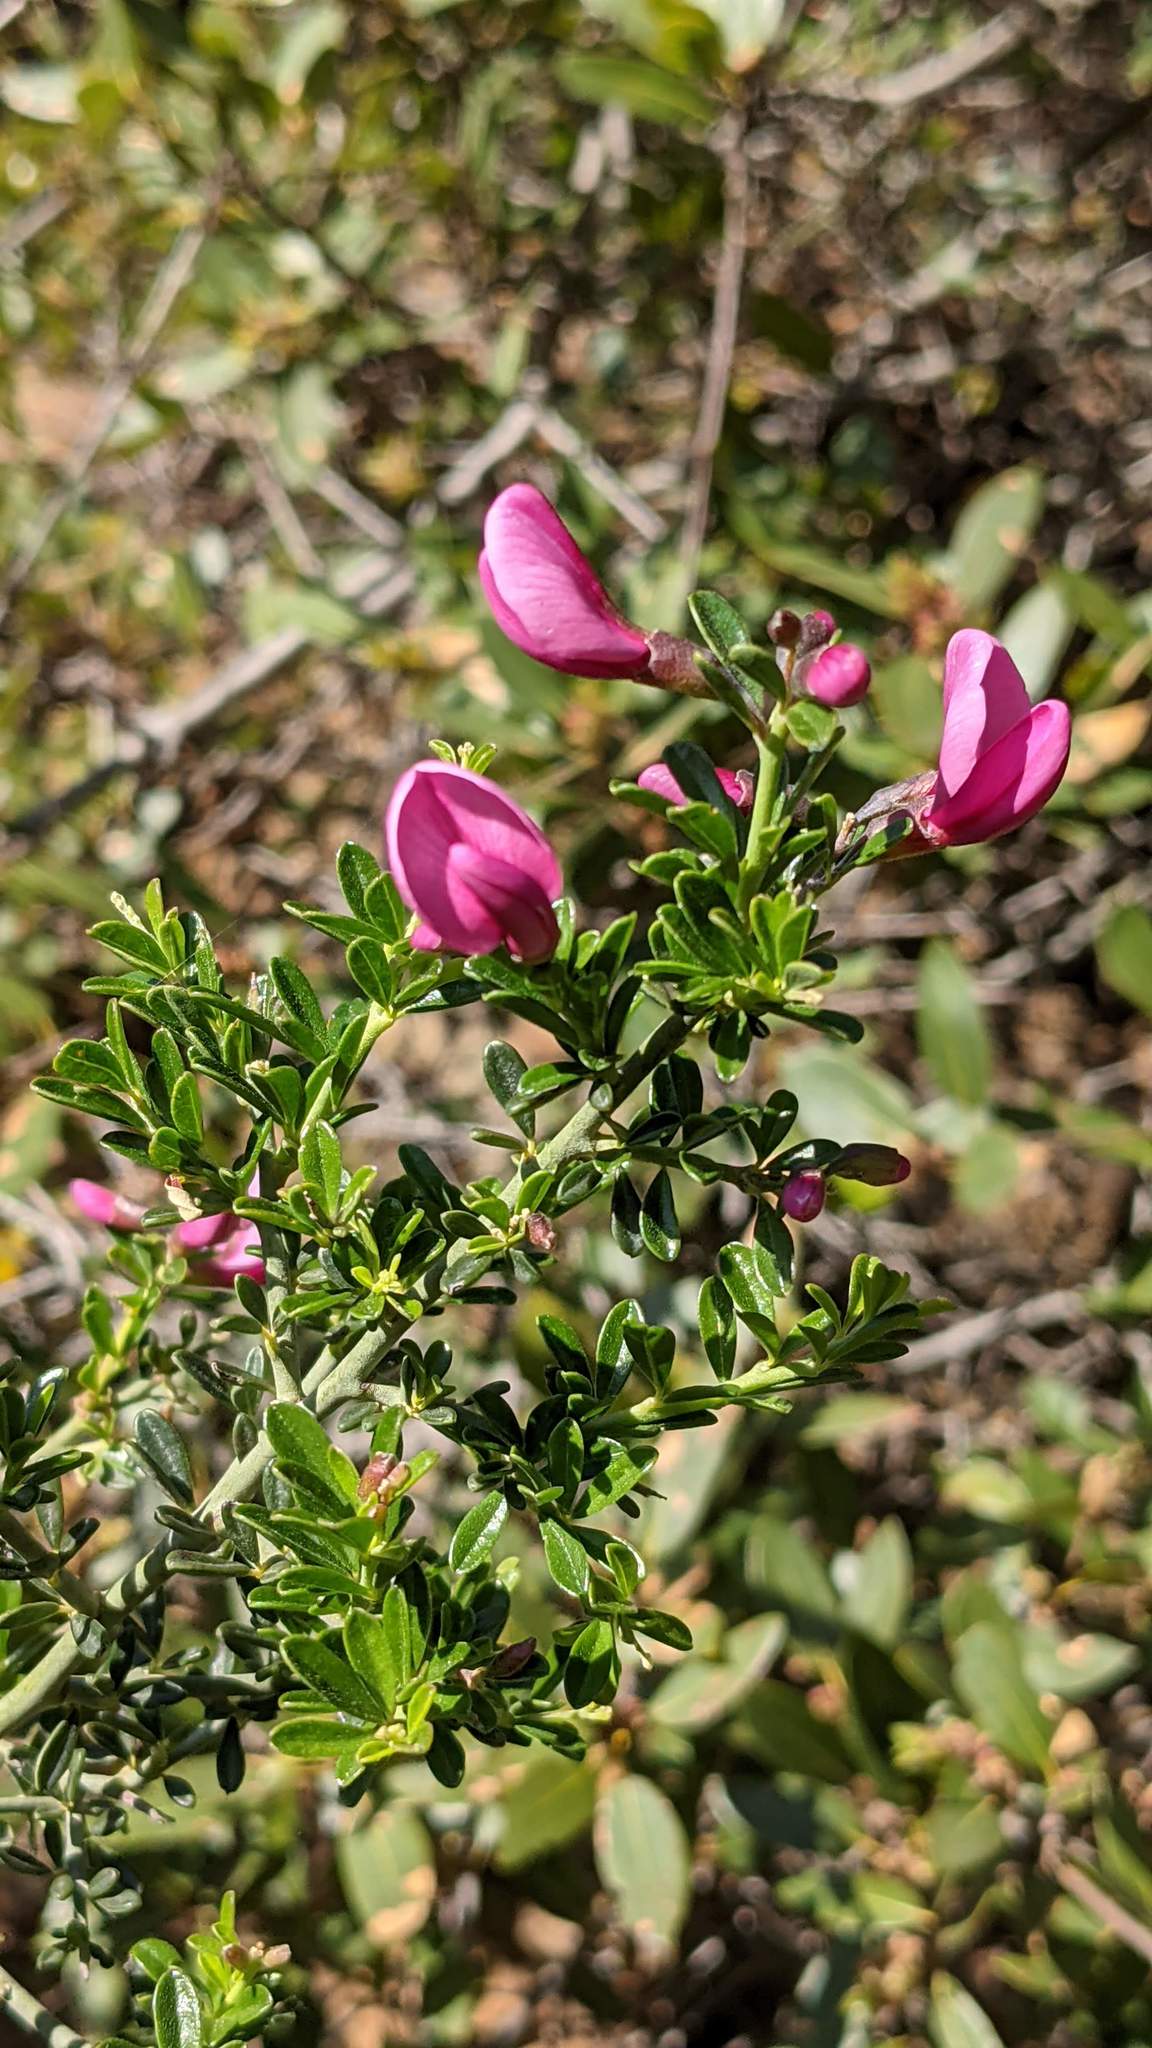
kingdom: Plantae
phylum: Tracheophyta
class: Magnoliopsida
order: Fabales
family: Fabaceae
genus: Pickeringia
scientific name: Pickeringia montana
